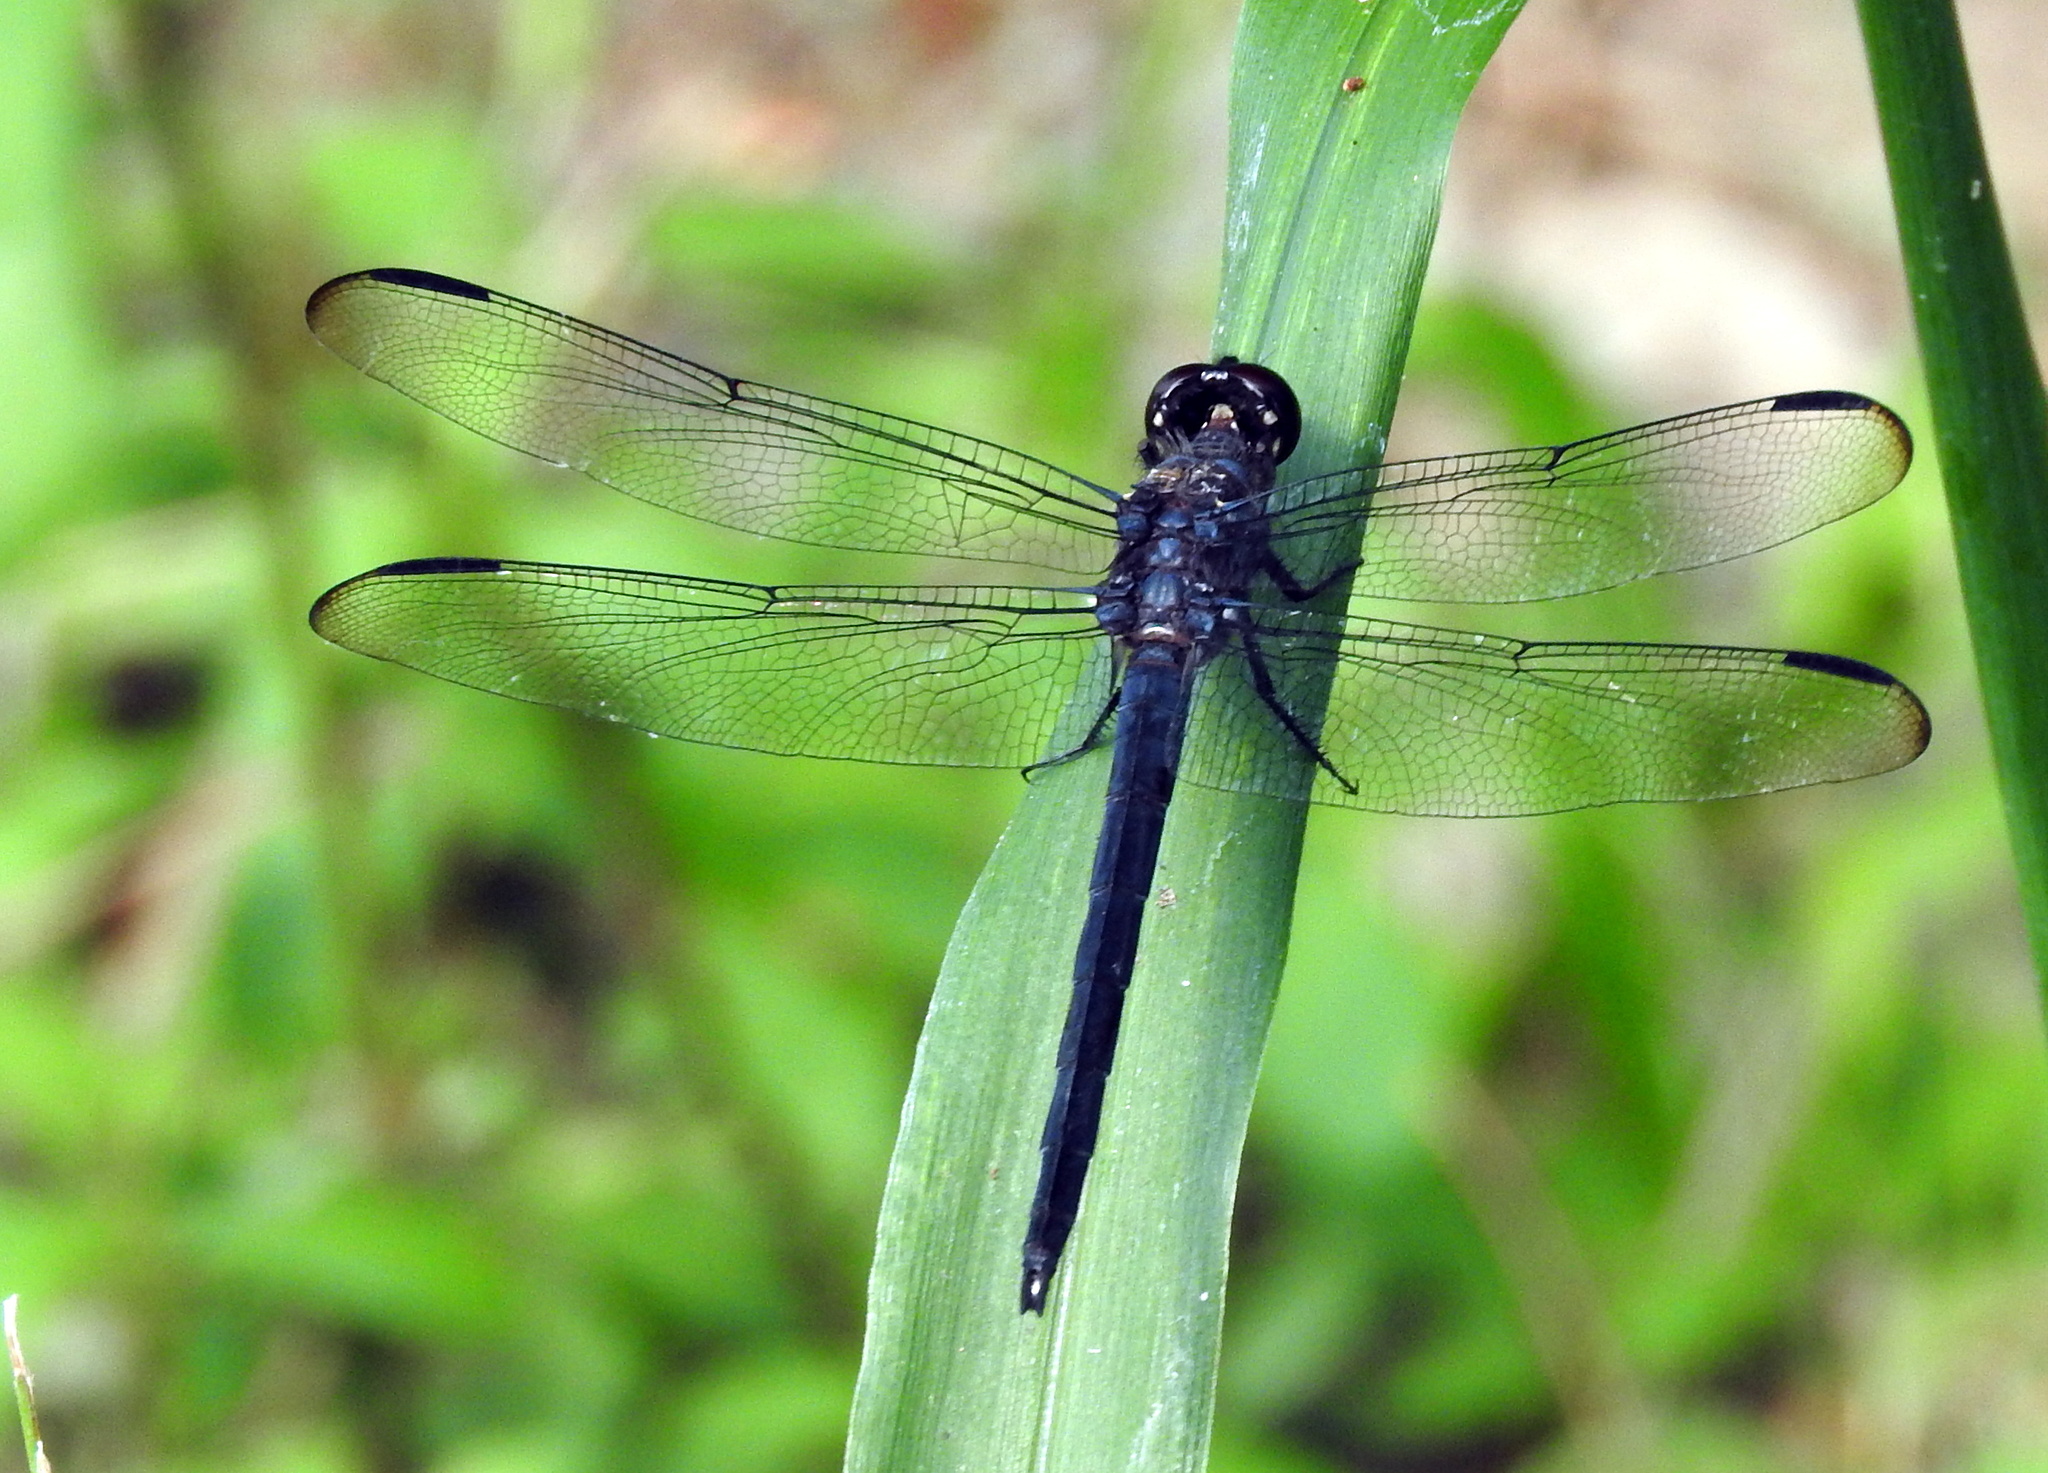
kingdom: Animalia
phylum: Arthropoda
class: Insecta
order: Odonata
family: Libellulidae
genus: Libellula
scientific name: Libellula incesta
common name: Slaty skimmer
